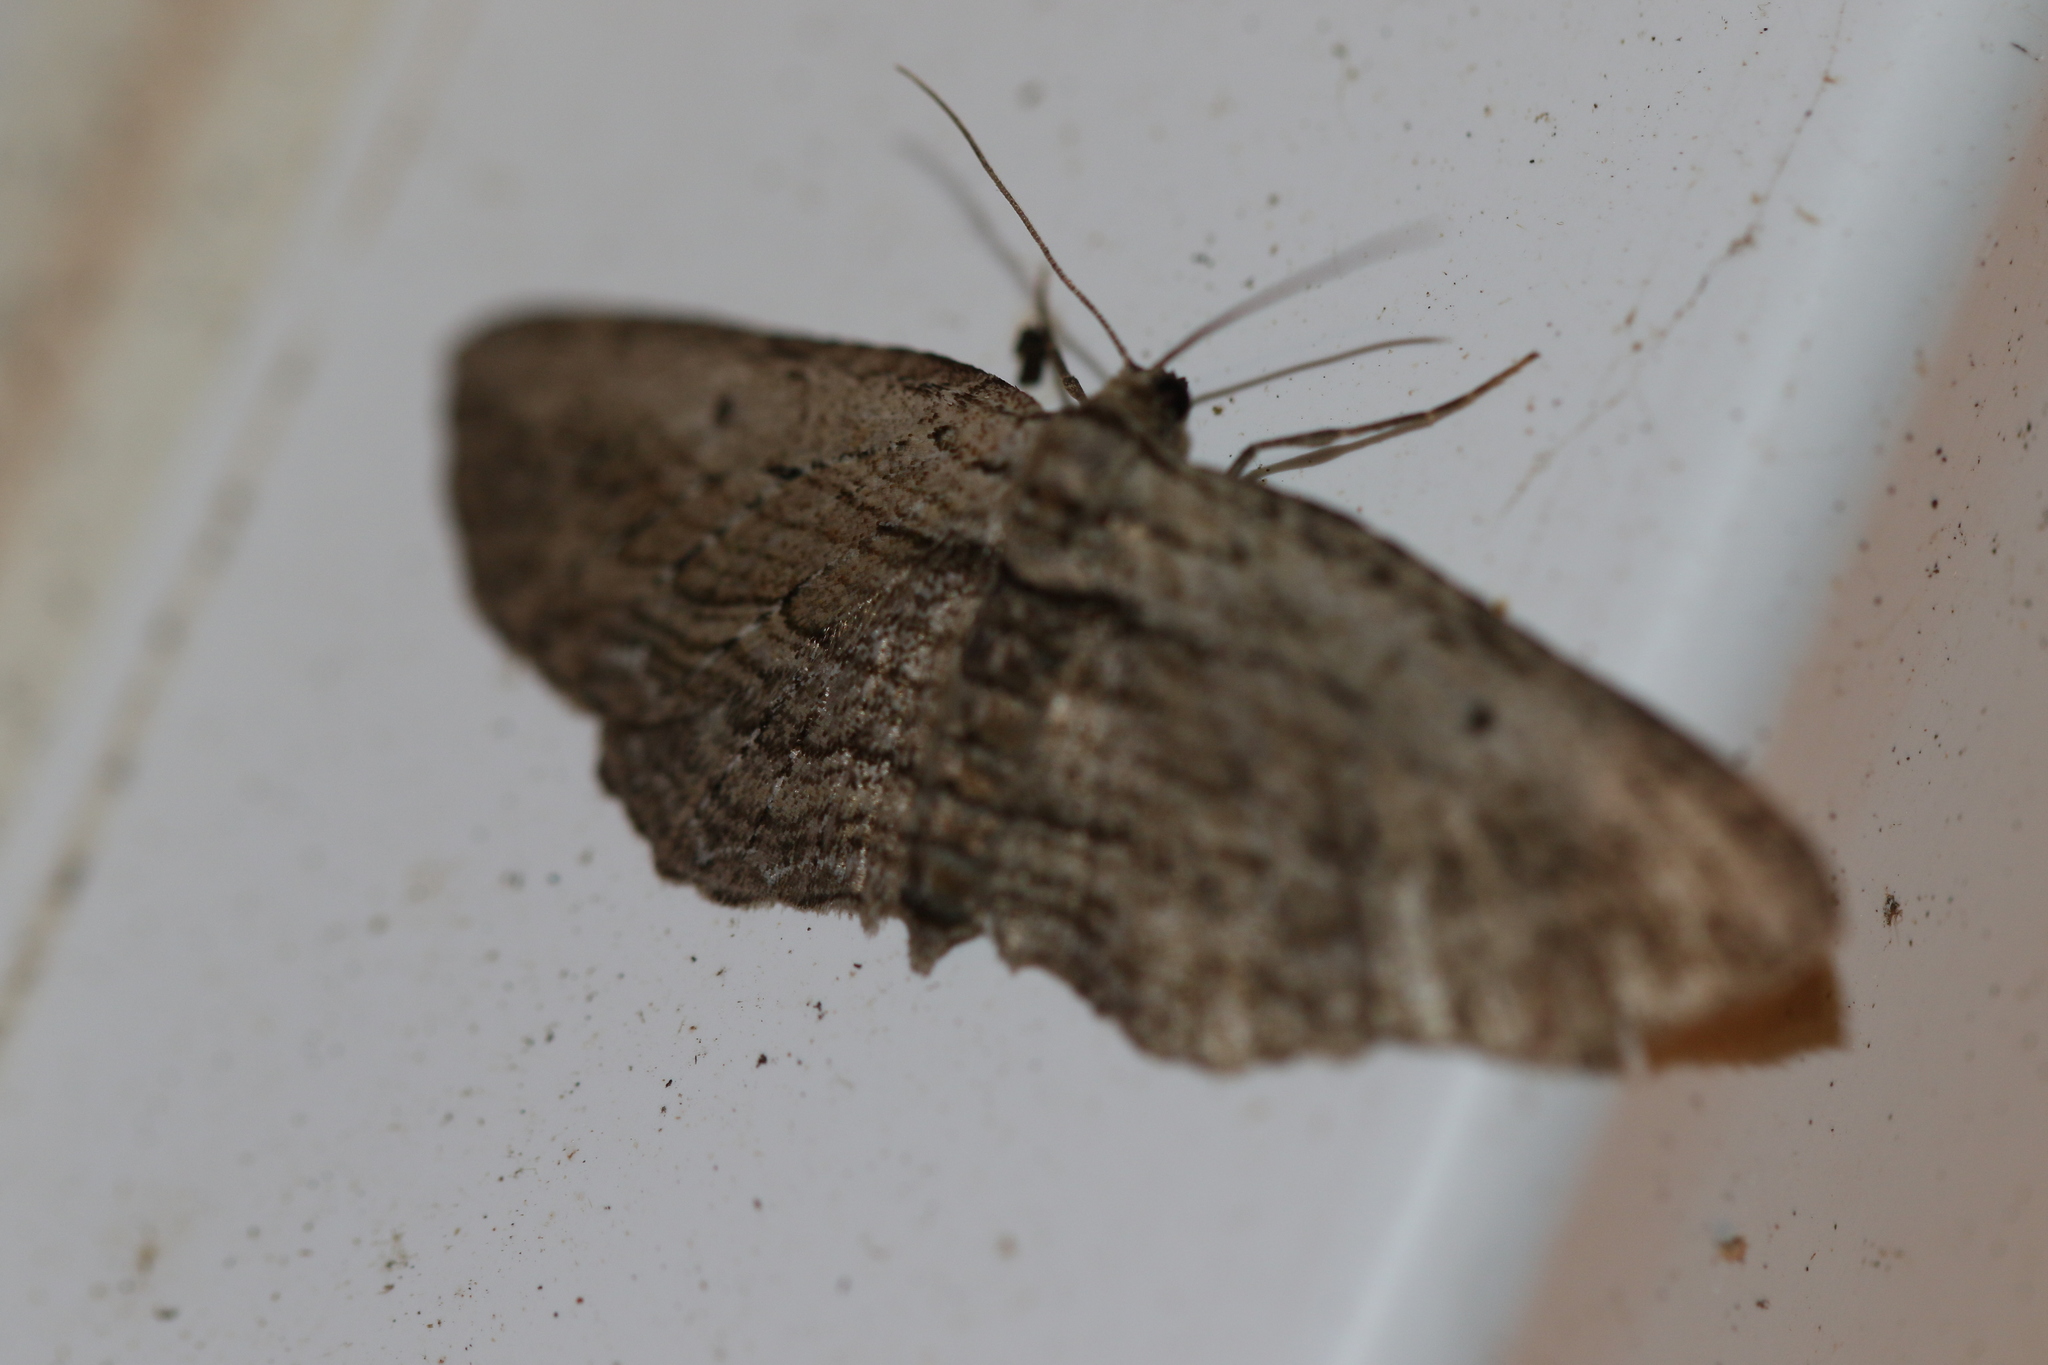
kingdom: Animalia
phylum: Arthropoda
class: Insecta
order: Lepidoptera
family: Geometridae
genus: Horisme
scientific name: Horisme intestinata
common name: Brown bark carpet
